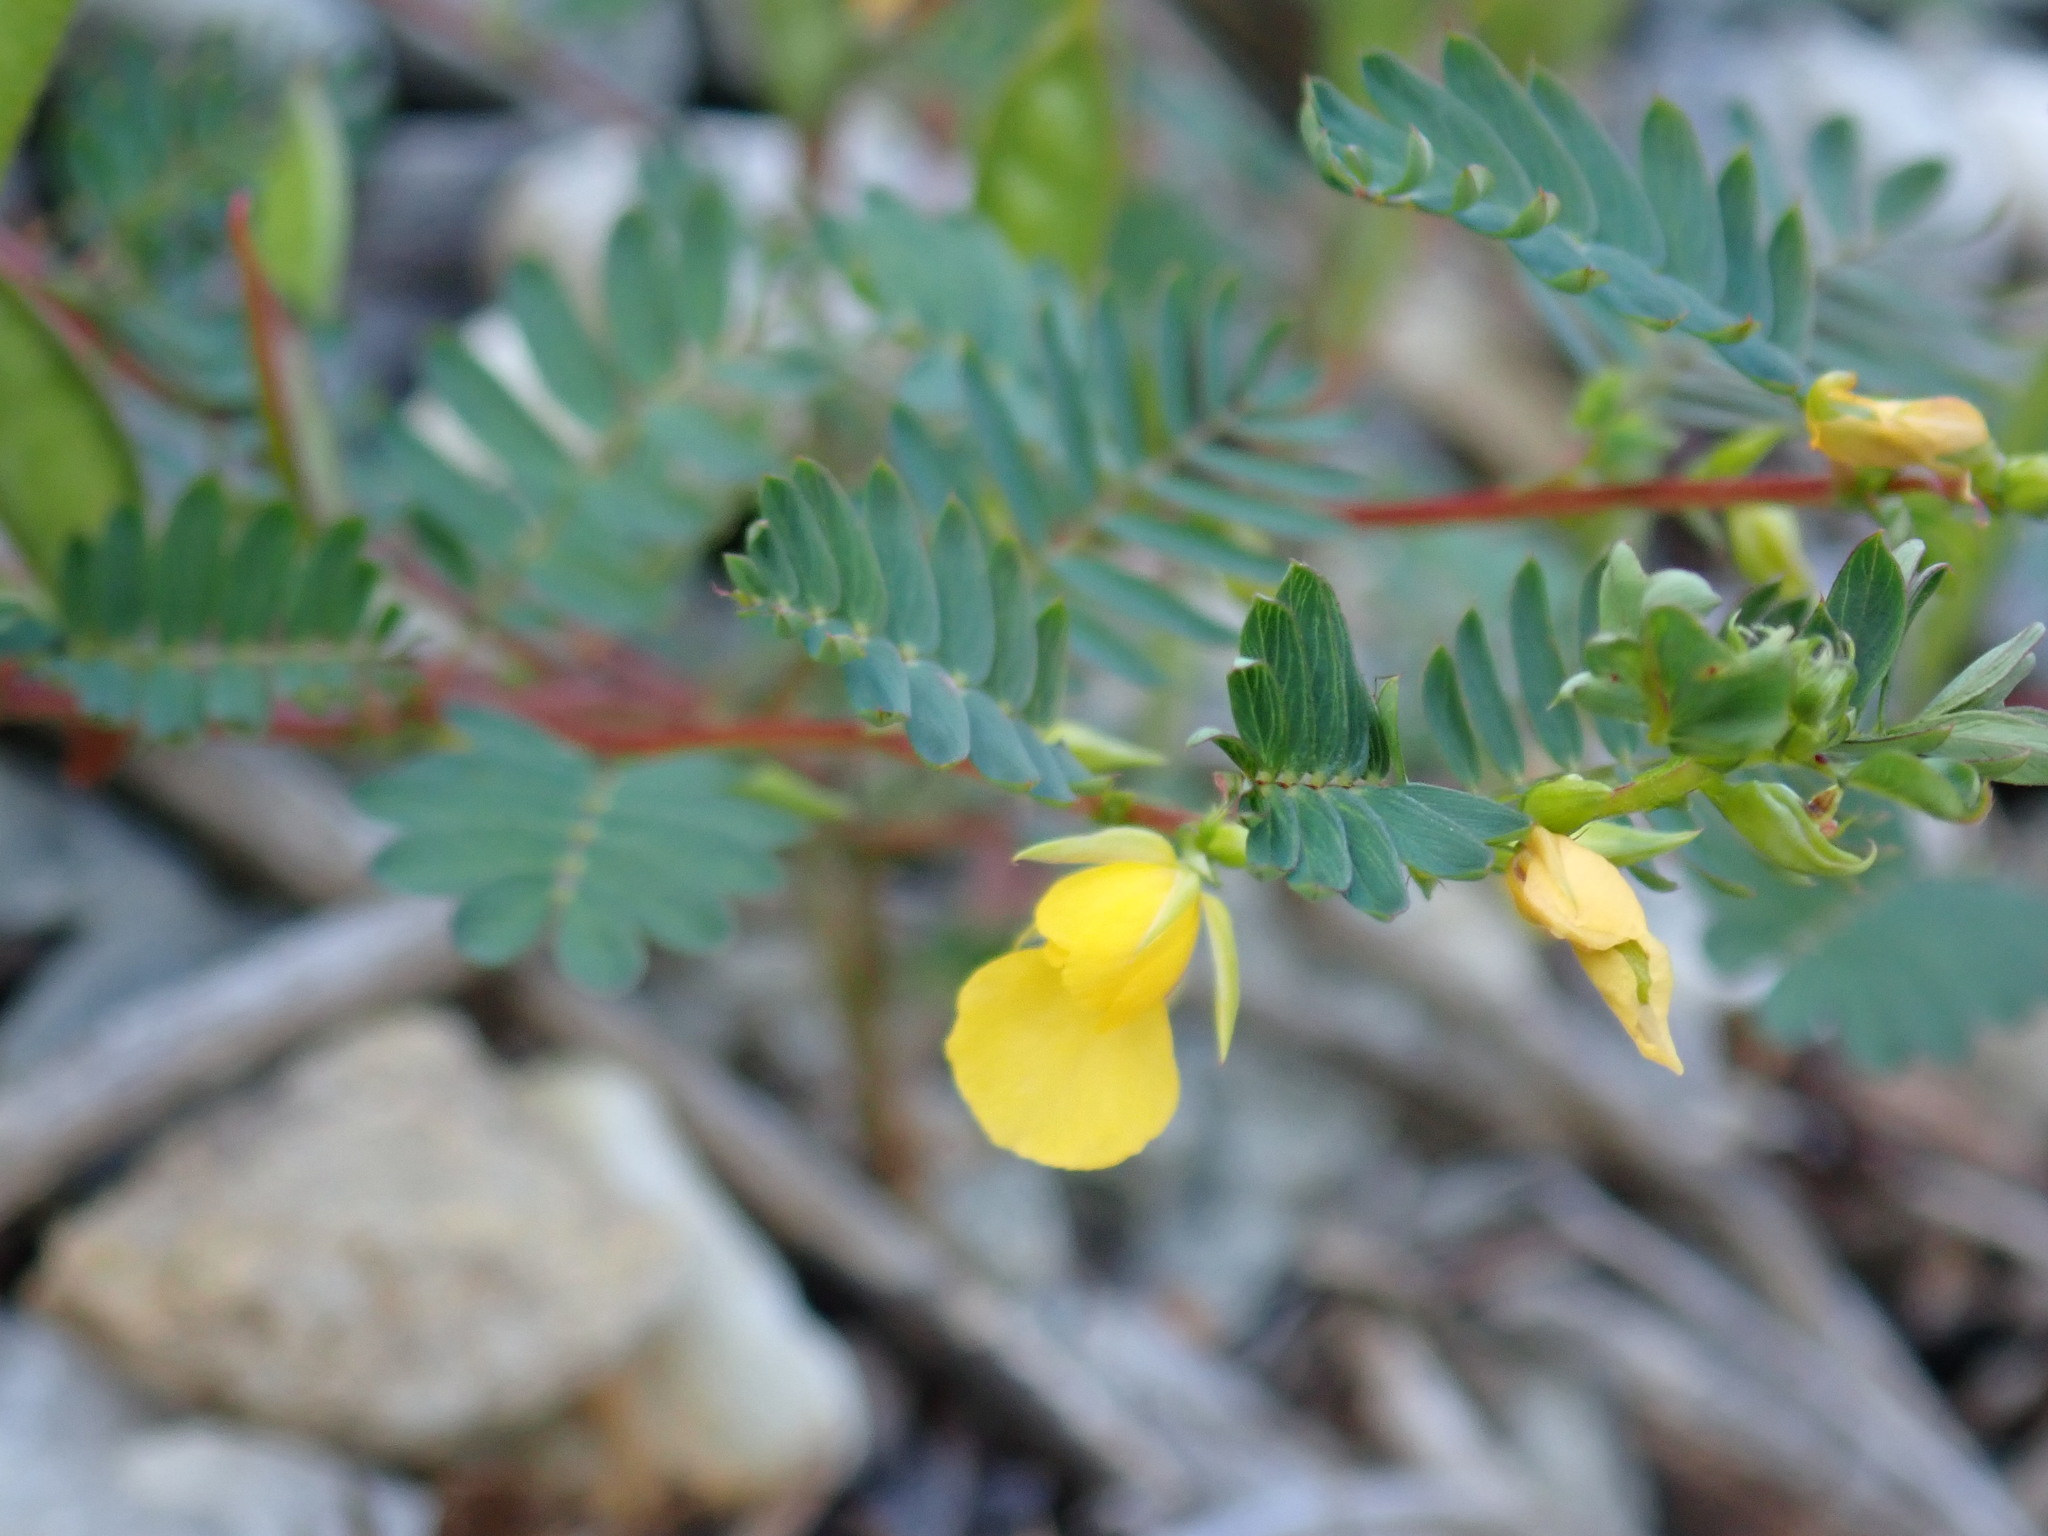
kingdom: Plantae
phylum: Tracheophyta
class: Magnoliopsida
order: Fabales
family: Fabaceae
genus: Chamaecrista
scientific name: Chamaecrista nictitans
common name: Sensitive cassia
